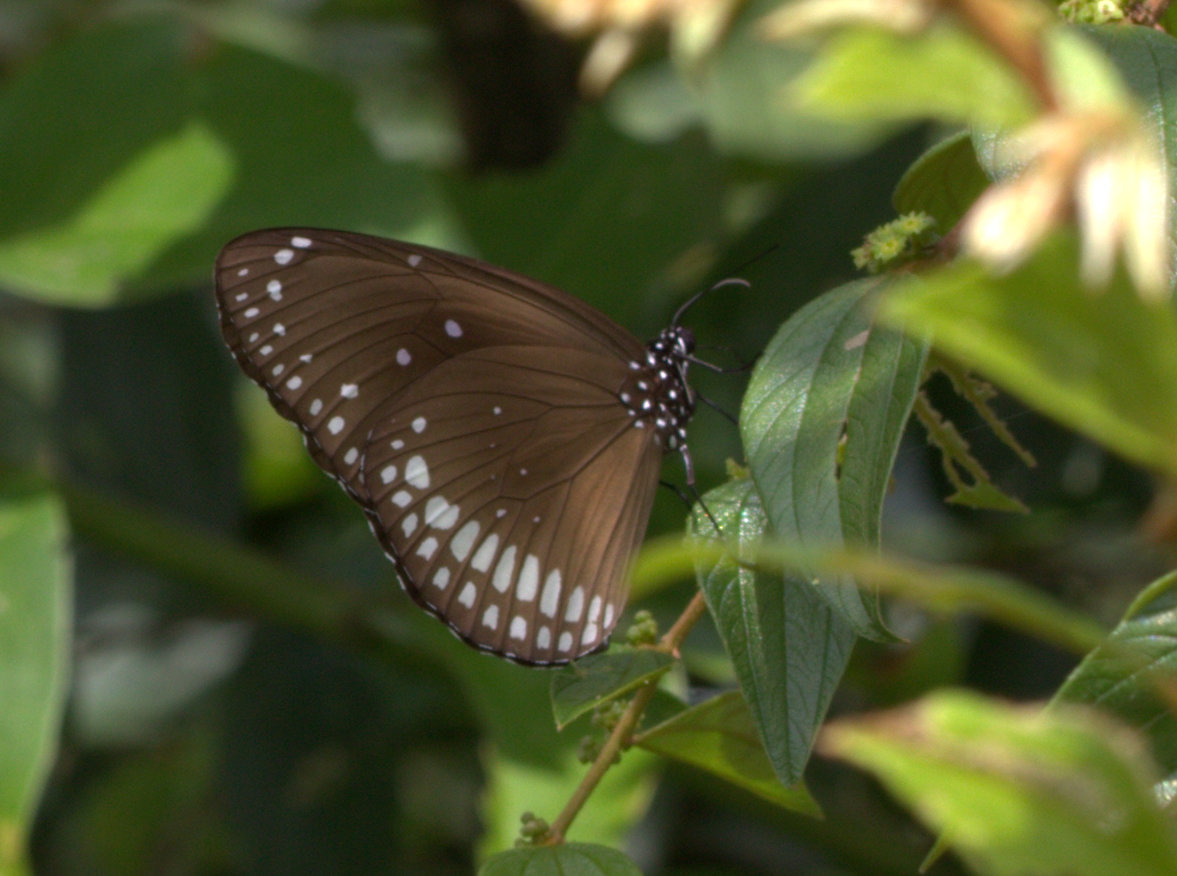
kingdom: Animalia
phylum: Arthropoda
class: Insecta
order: Lepidoptera
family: Nymphalidae
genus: Euploea
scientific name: Euploea core
